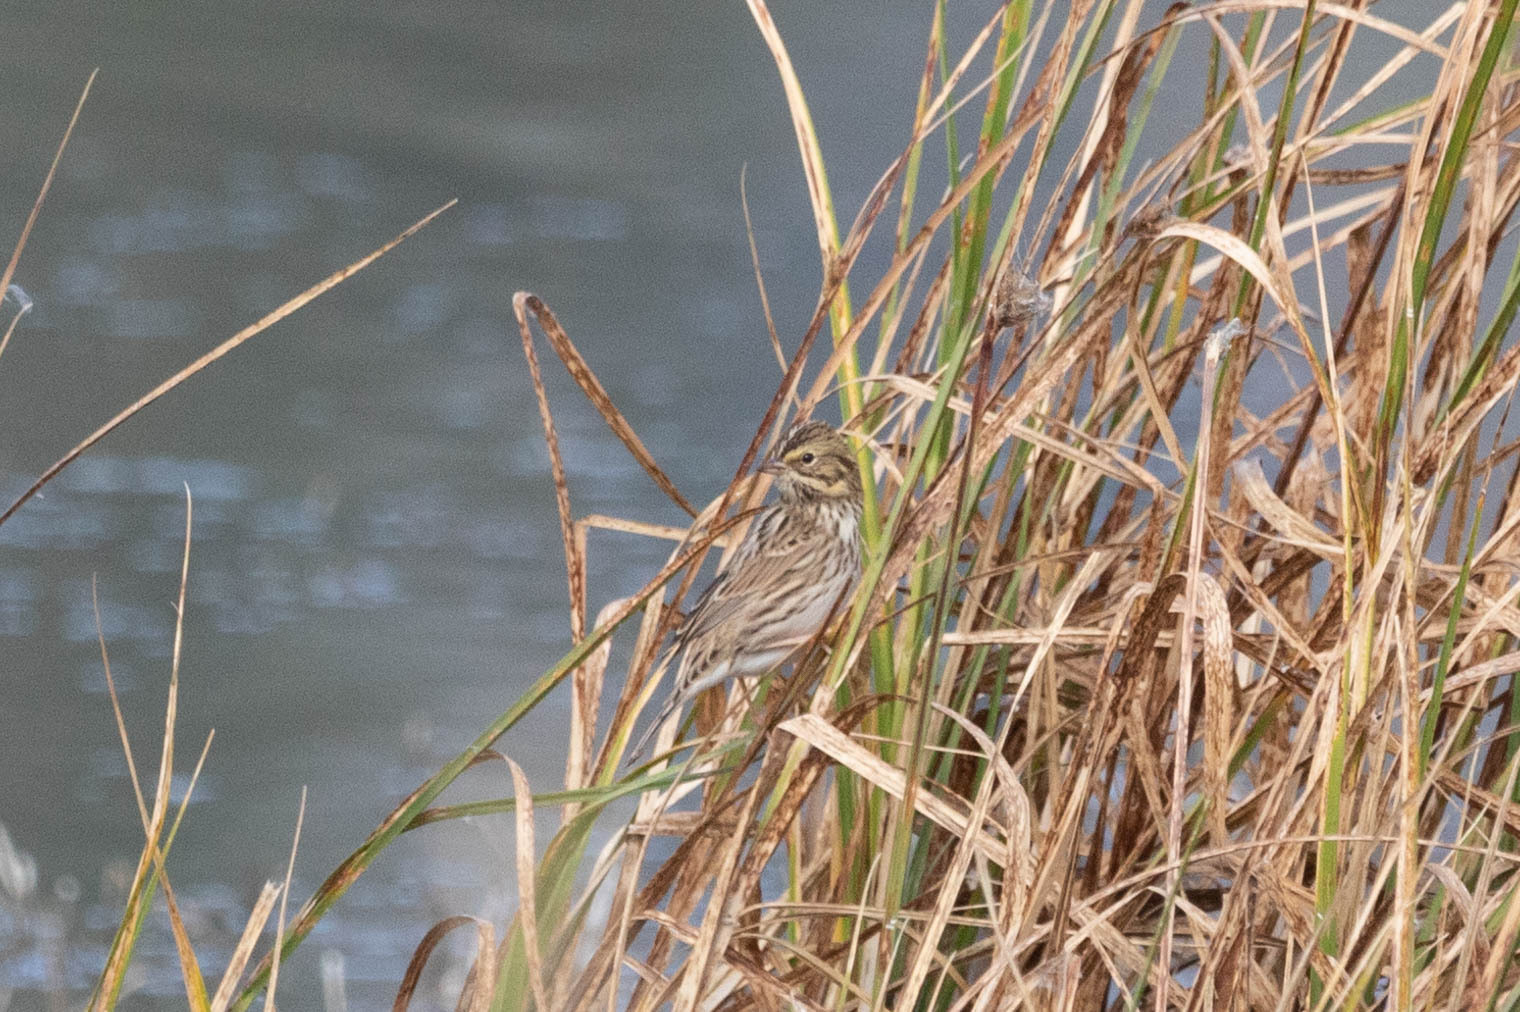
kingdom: Animalia
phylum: Chordata
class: Aves
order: Passeriformes
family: Passerellidae
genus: Passerculus
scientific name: Passerculus sandwichensis
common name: Savannah sparrow
